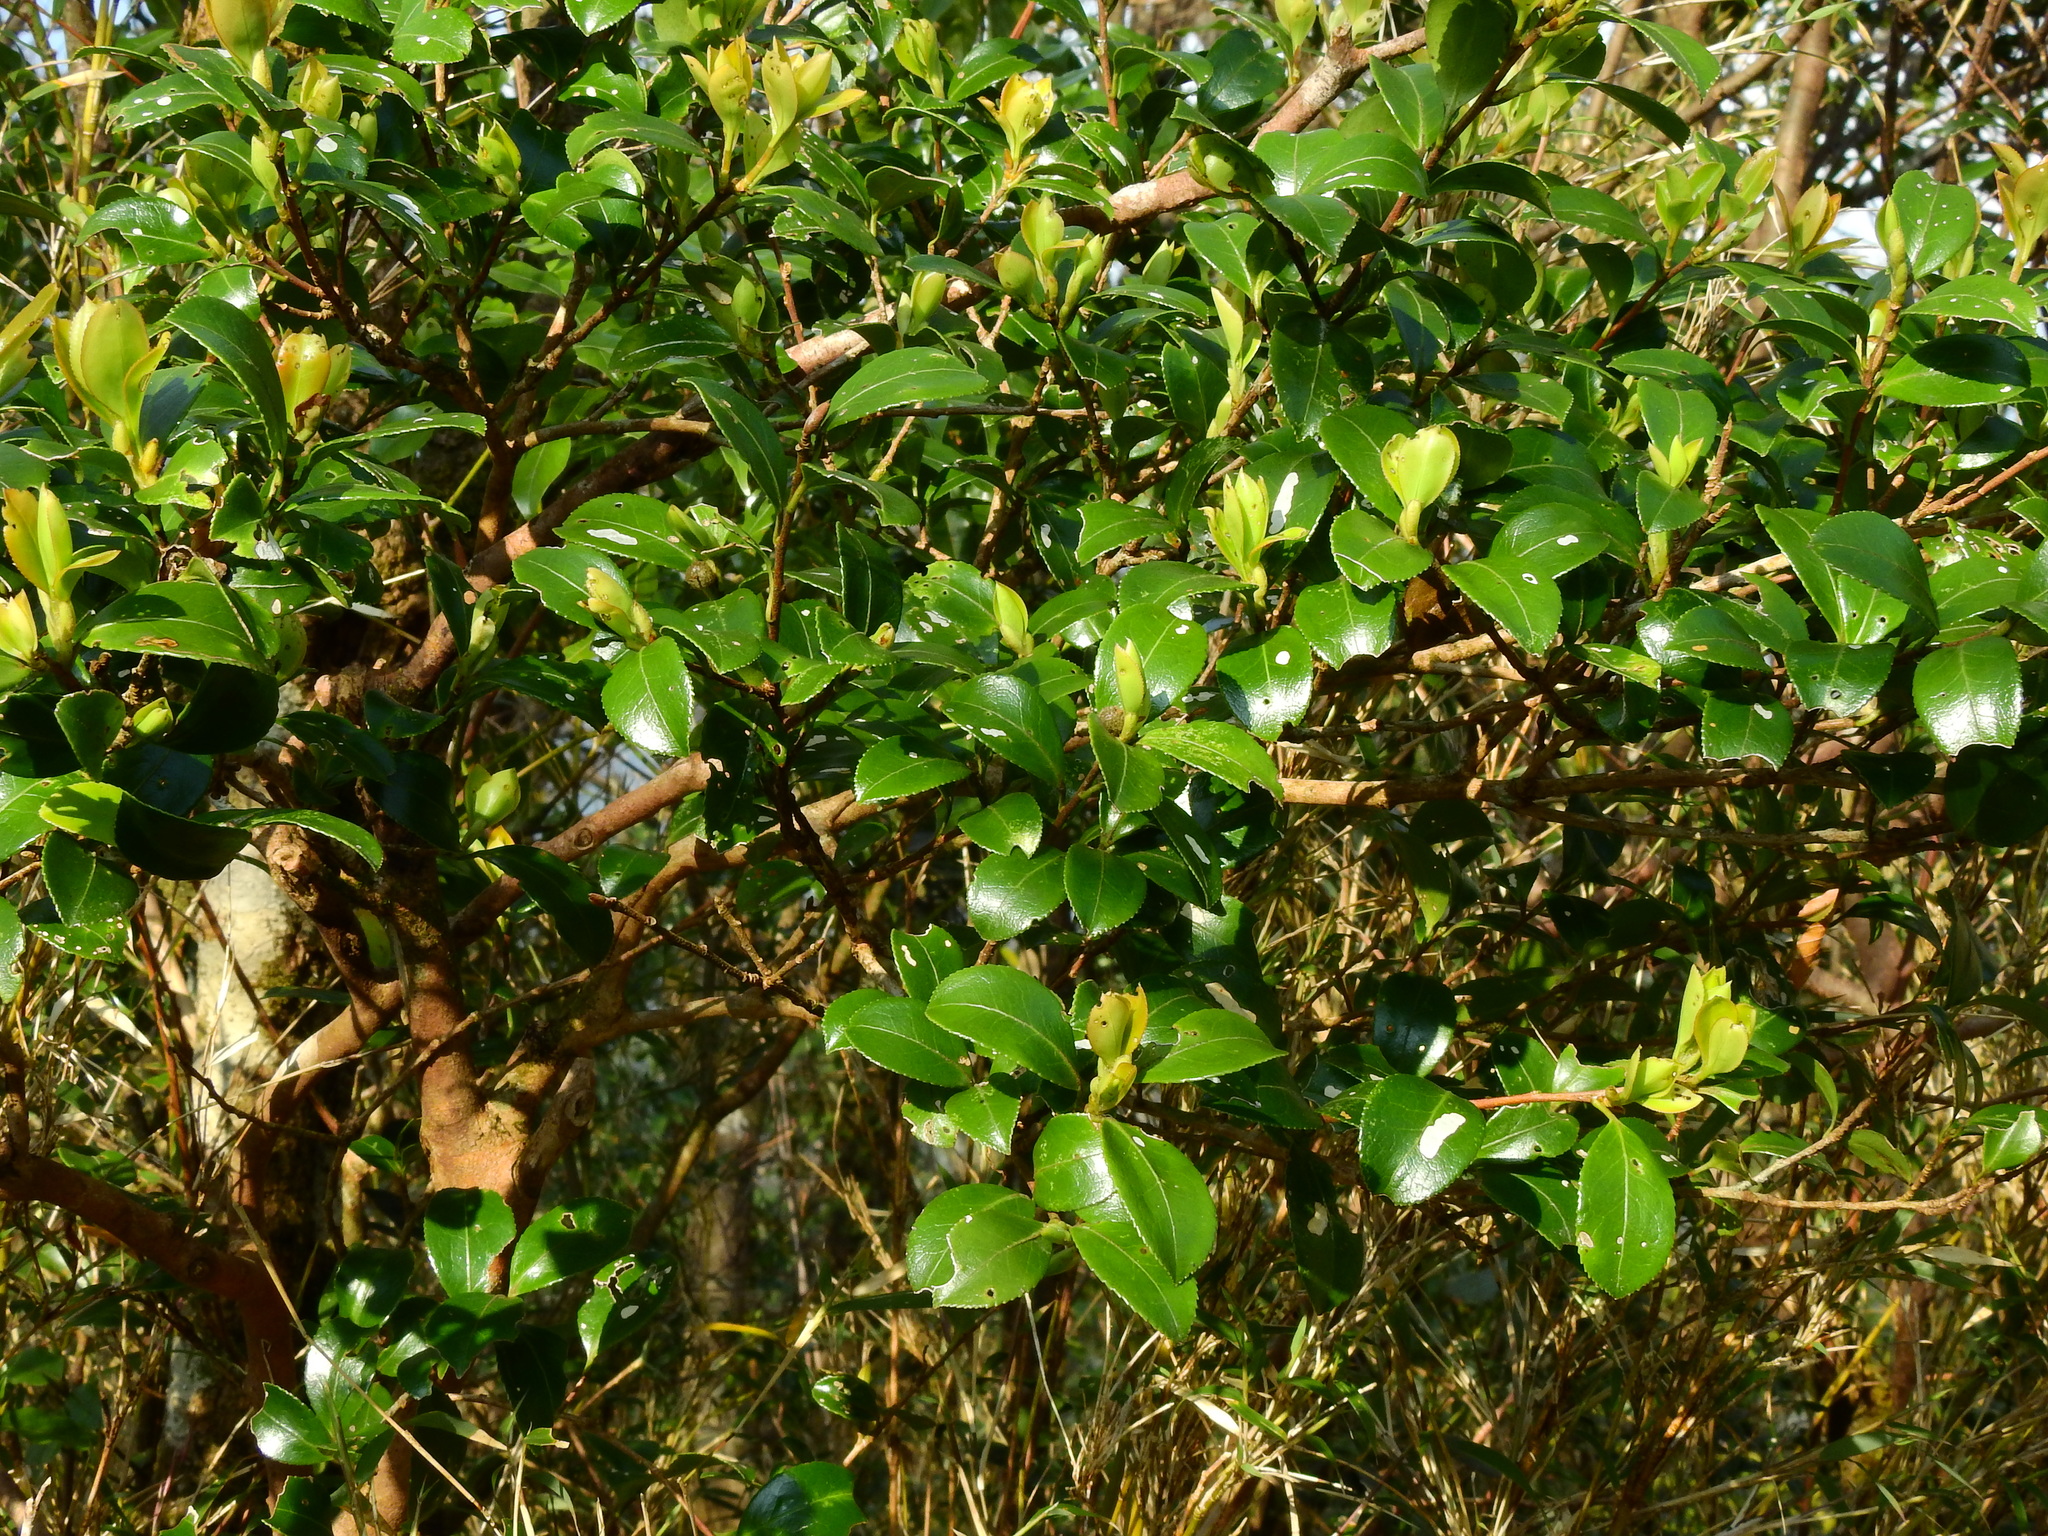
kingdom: Plantae
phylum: Tracheophyta
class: Magnoliopsida
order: Ericales
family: Theaceae
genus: Camellia
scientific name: Camellia brevistyla
